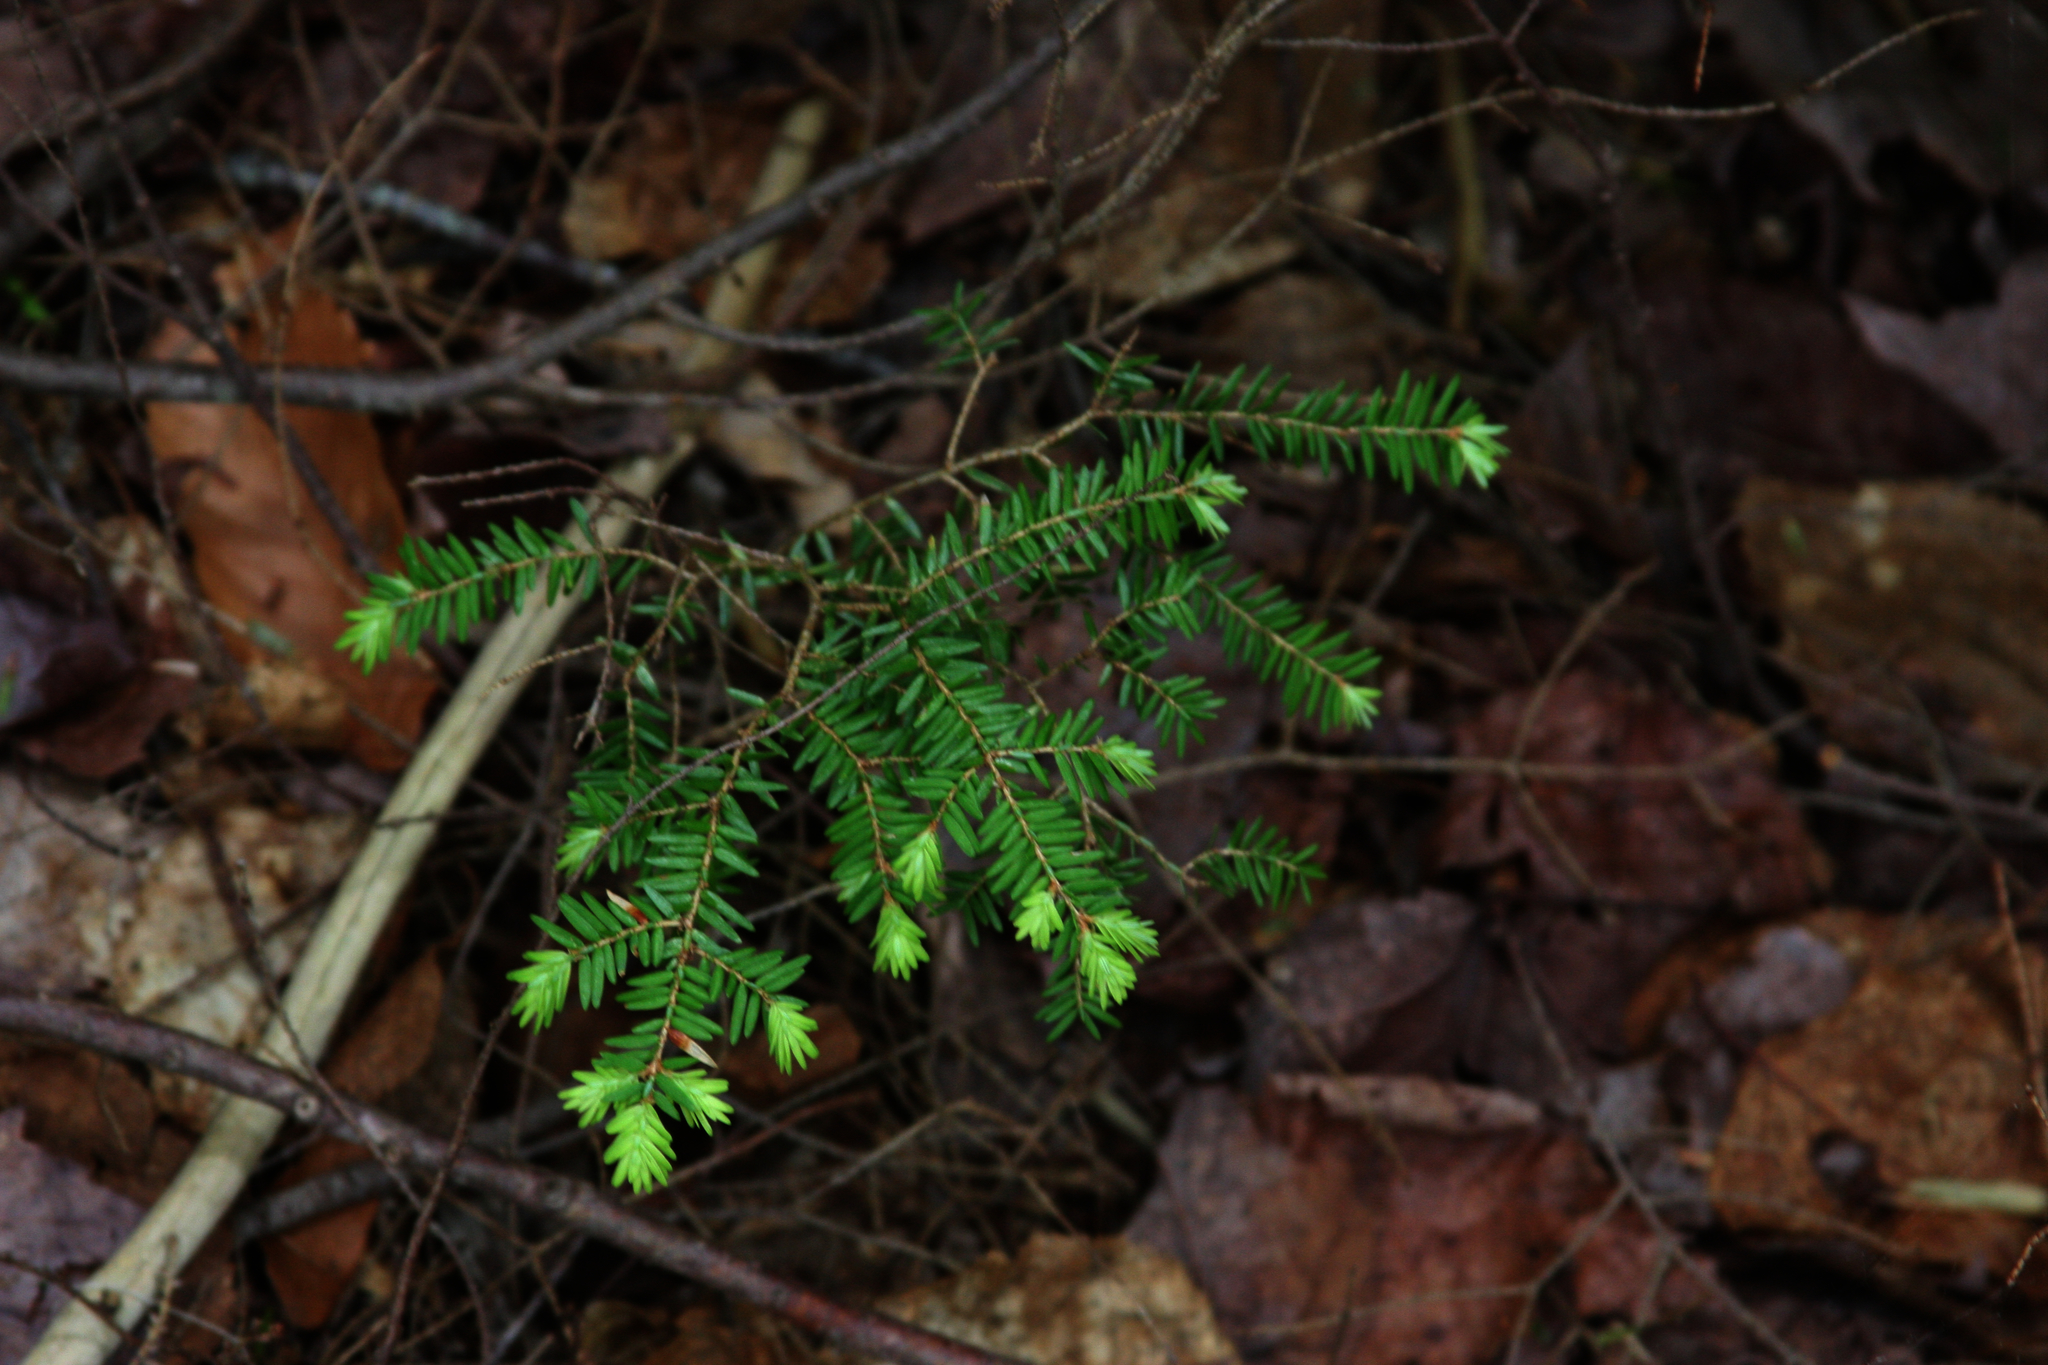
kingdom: Plantae
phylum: Tracheophyta
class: Pinopsida
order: Pinales
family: Pinaceae
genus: Tsuga
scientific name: Tsuga canadensis
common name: Eastern hemlock
